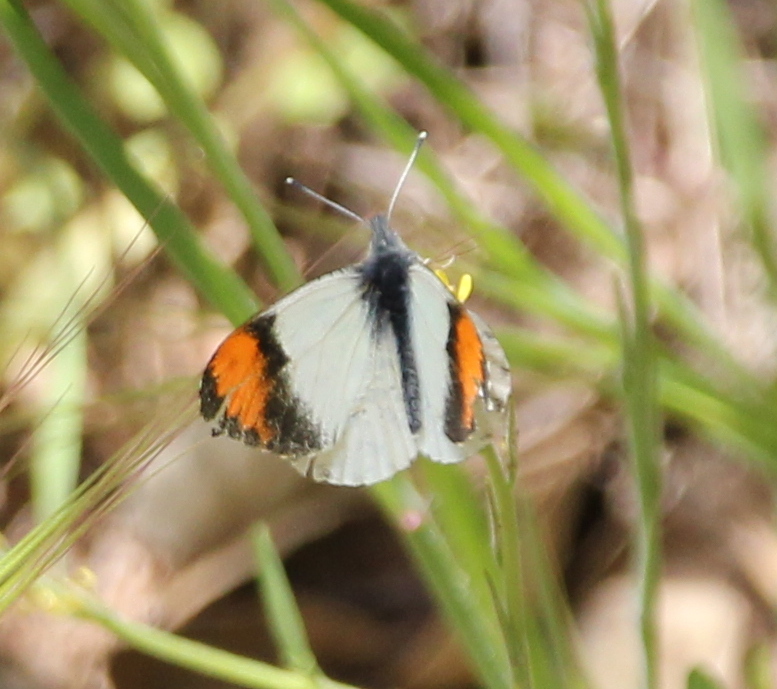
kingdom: Animalia
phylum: Arthropoda
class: Insecta
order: Lepidoptera
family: Pieridae
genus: Anthocharis
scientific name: Anthocharis sara
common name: Sara's orangetip
